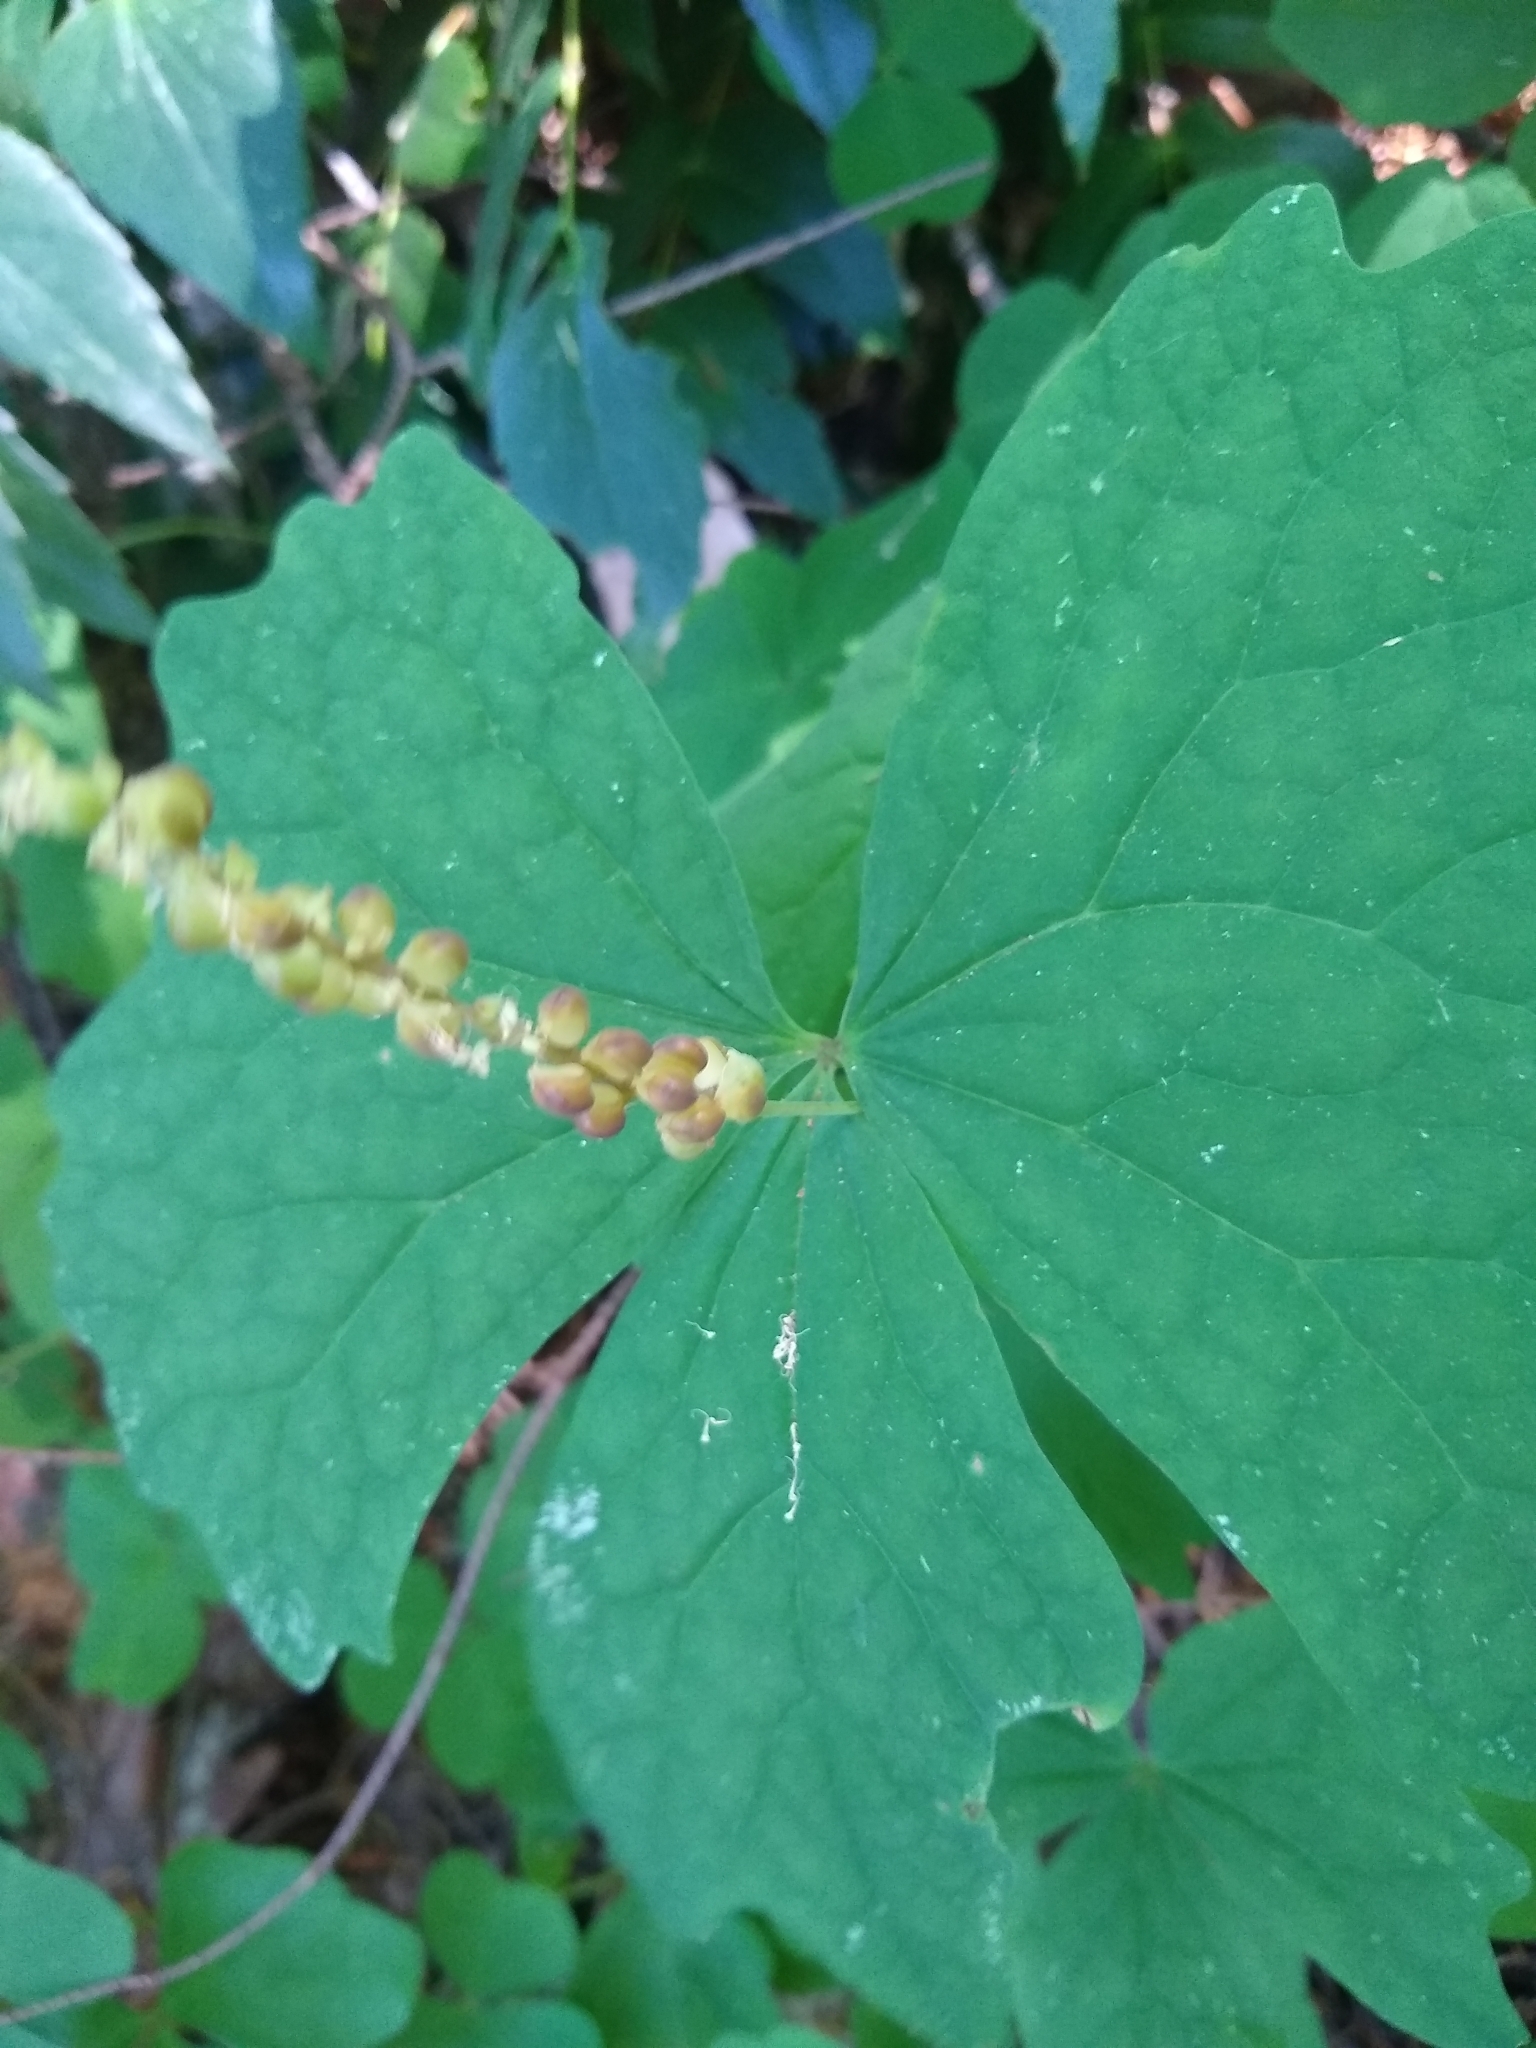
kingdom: Plantae
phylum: Tracheophyta
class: Magnoliopsida
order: Ranunculales
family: Berberidaceae
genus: Achlys
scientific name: Achlys triphylla
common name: Vanilla-leaf
